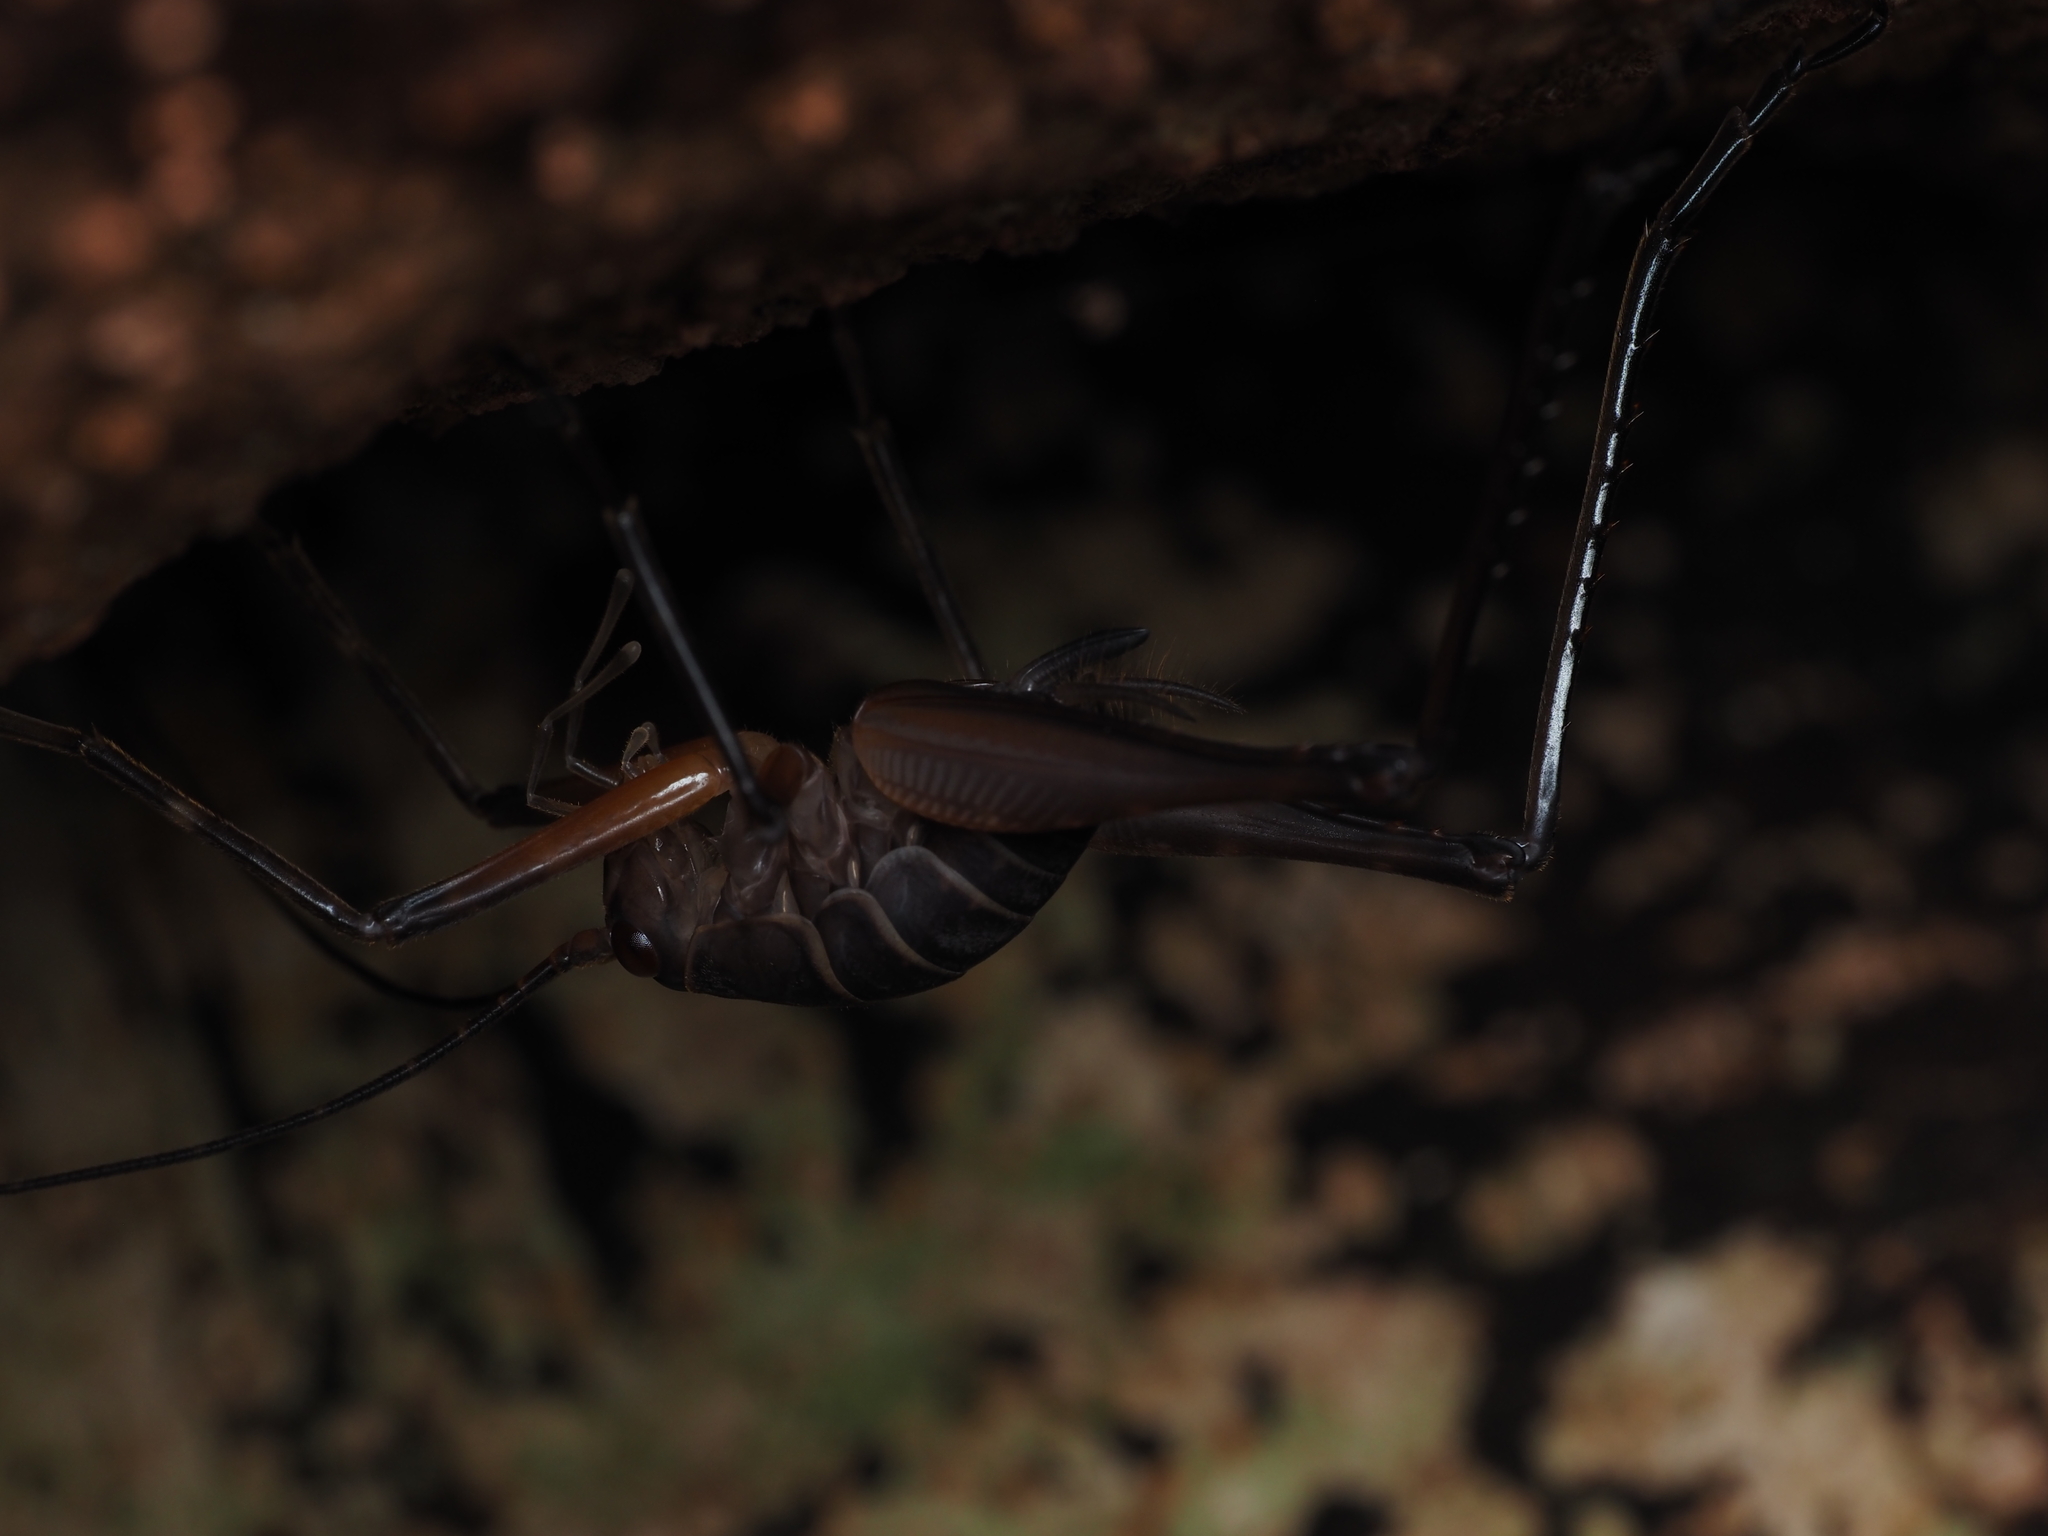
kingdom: Animalia
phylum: Arthropoda
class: Insecta
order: Orthoptera
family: Rhaphidophoridae
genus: Pachyrhamma
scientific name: Pachyrhamma longipes
